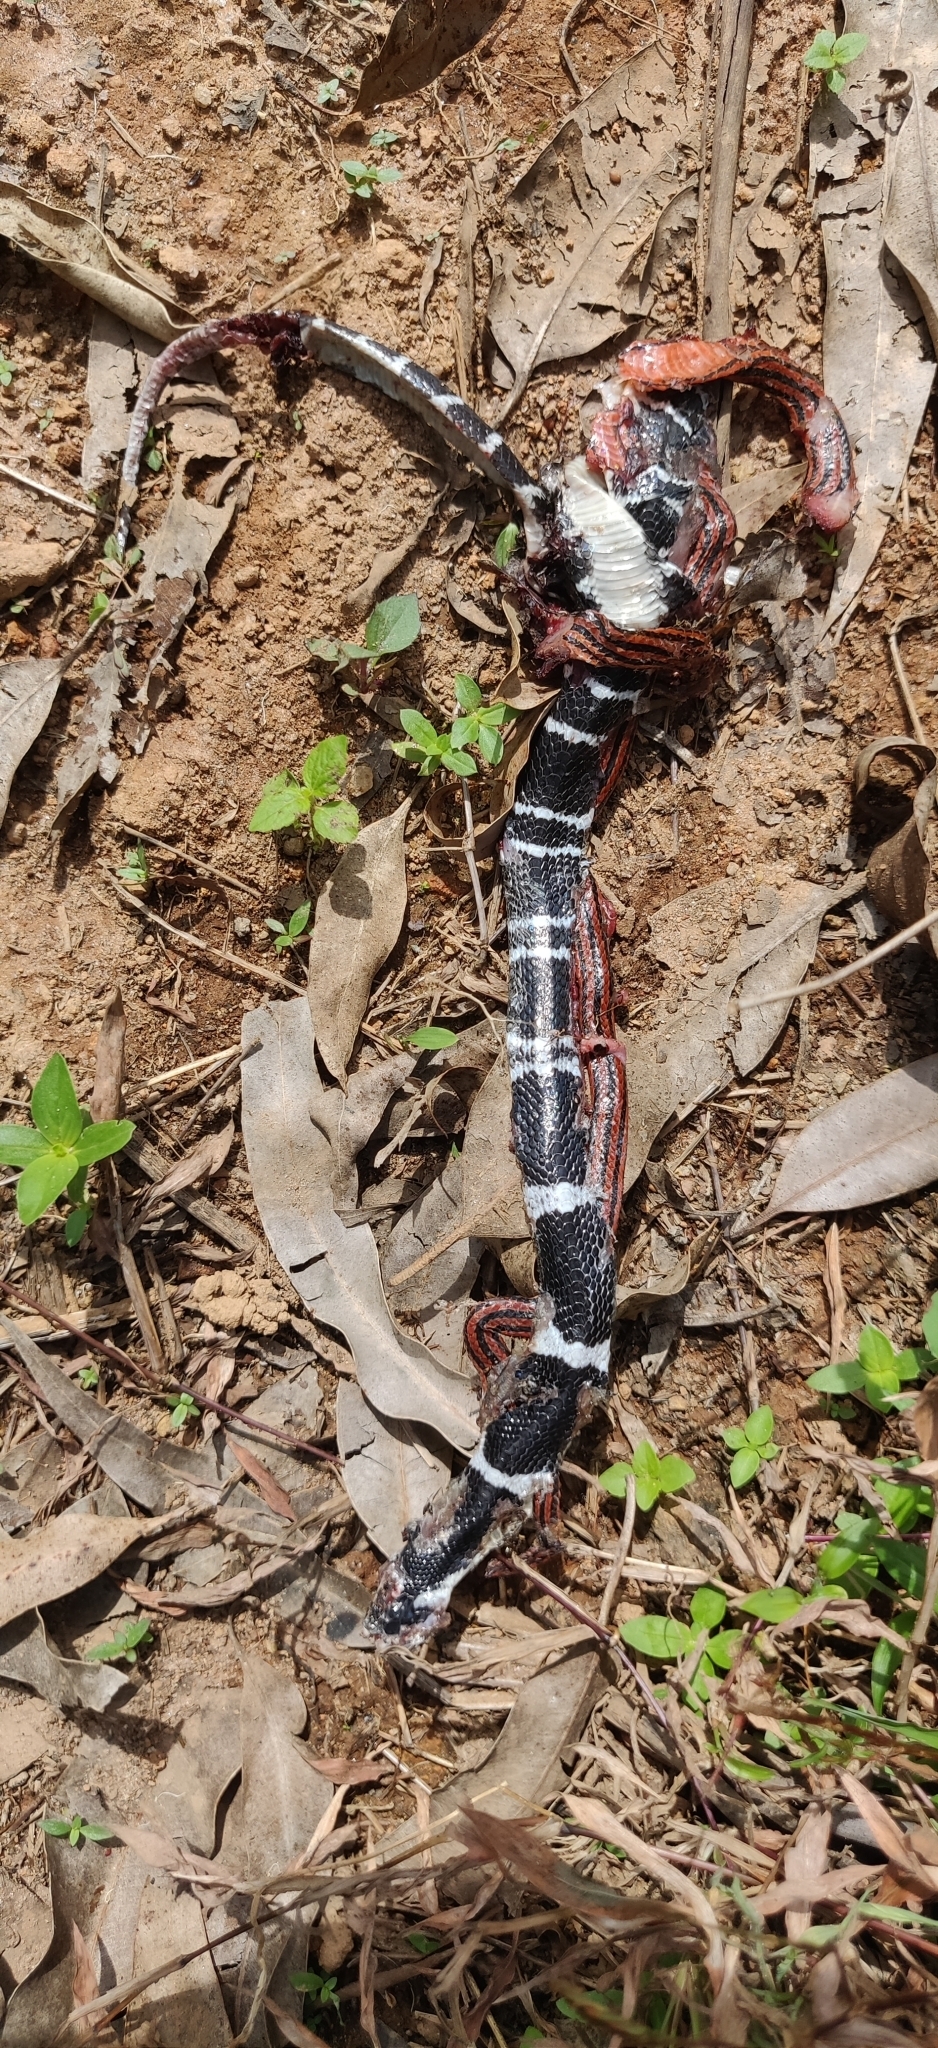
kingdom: Animalia
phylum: Chordata
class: Squamata
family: Elapidae
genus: Bungarus
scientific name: Bungarus caeruleus
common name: Common krait
